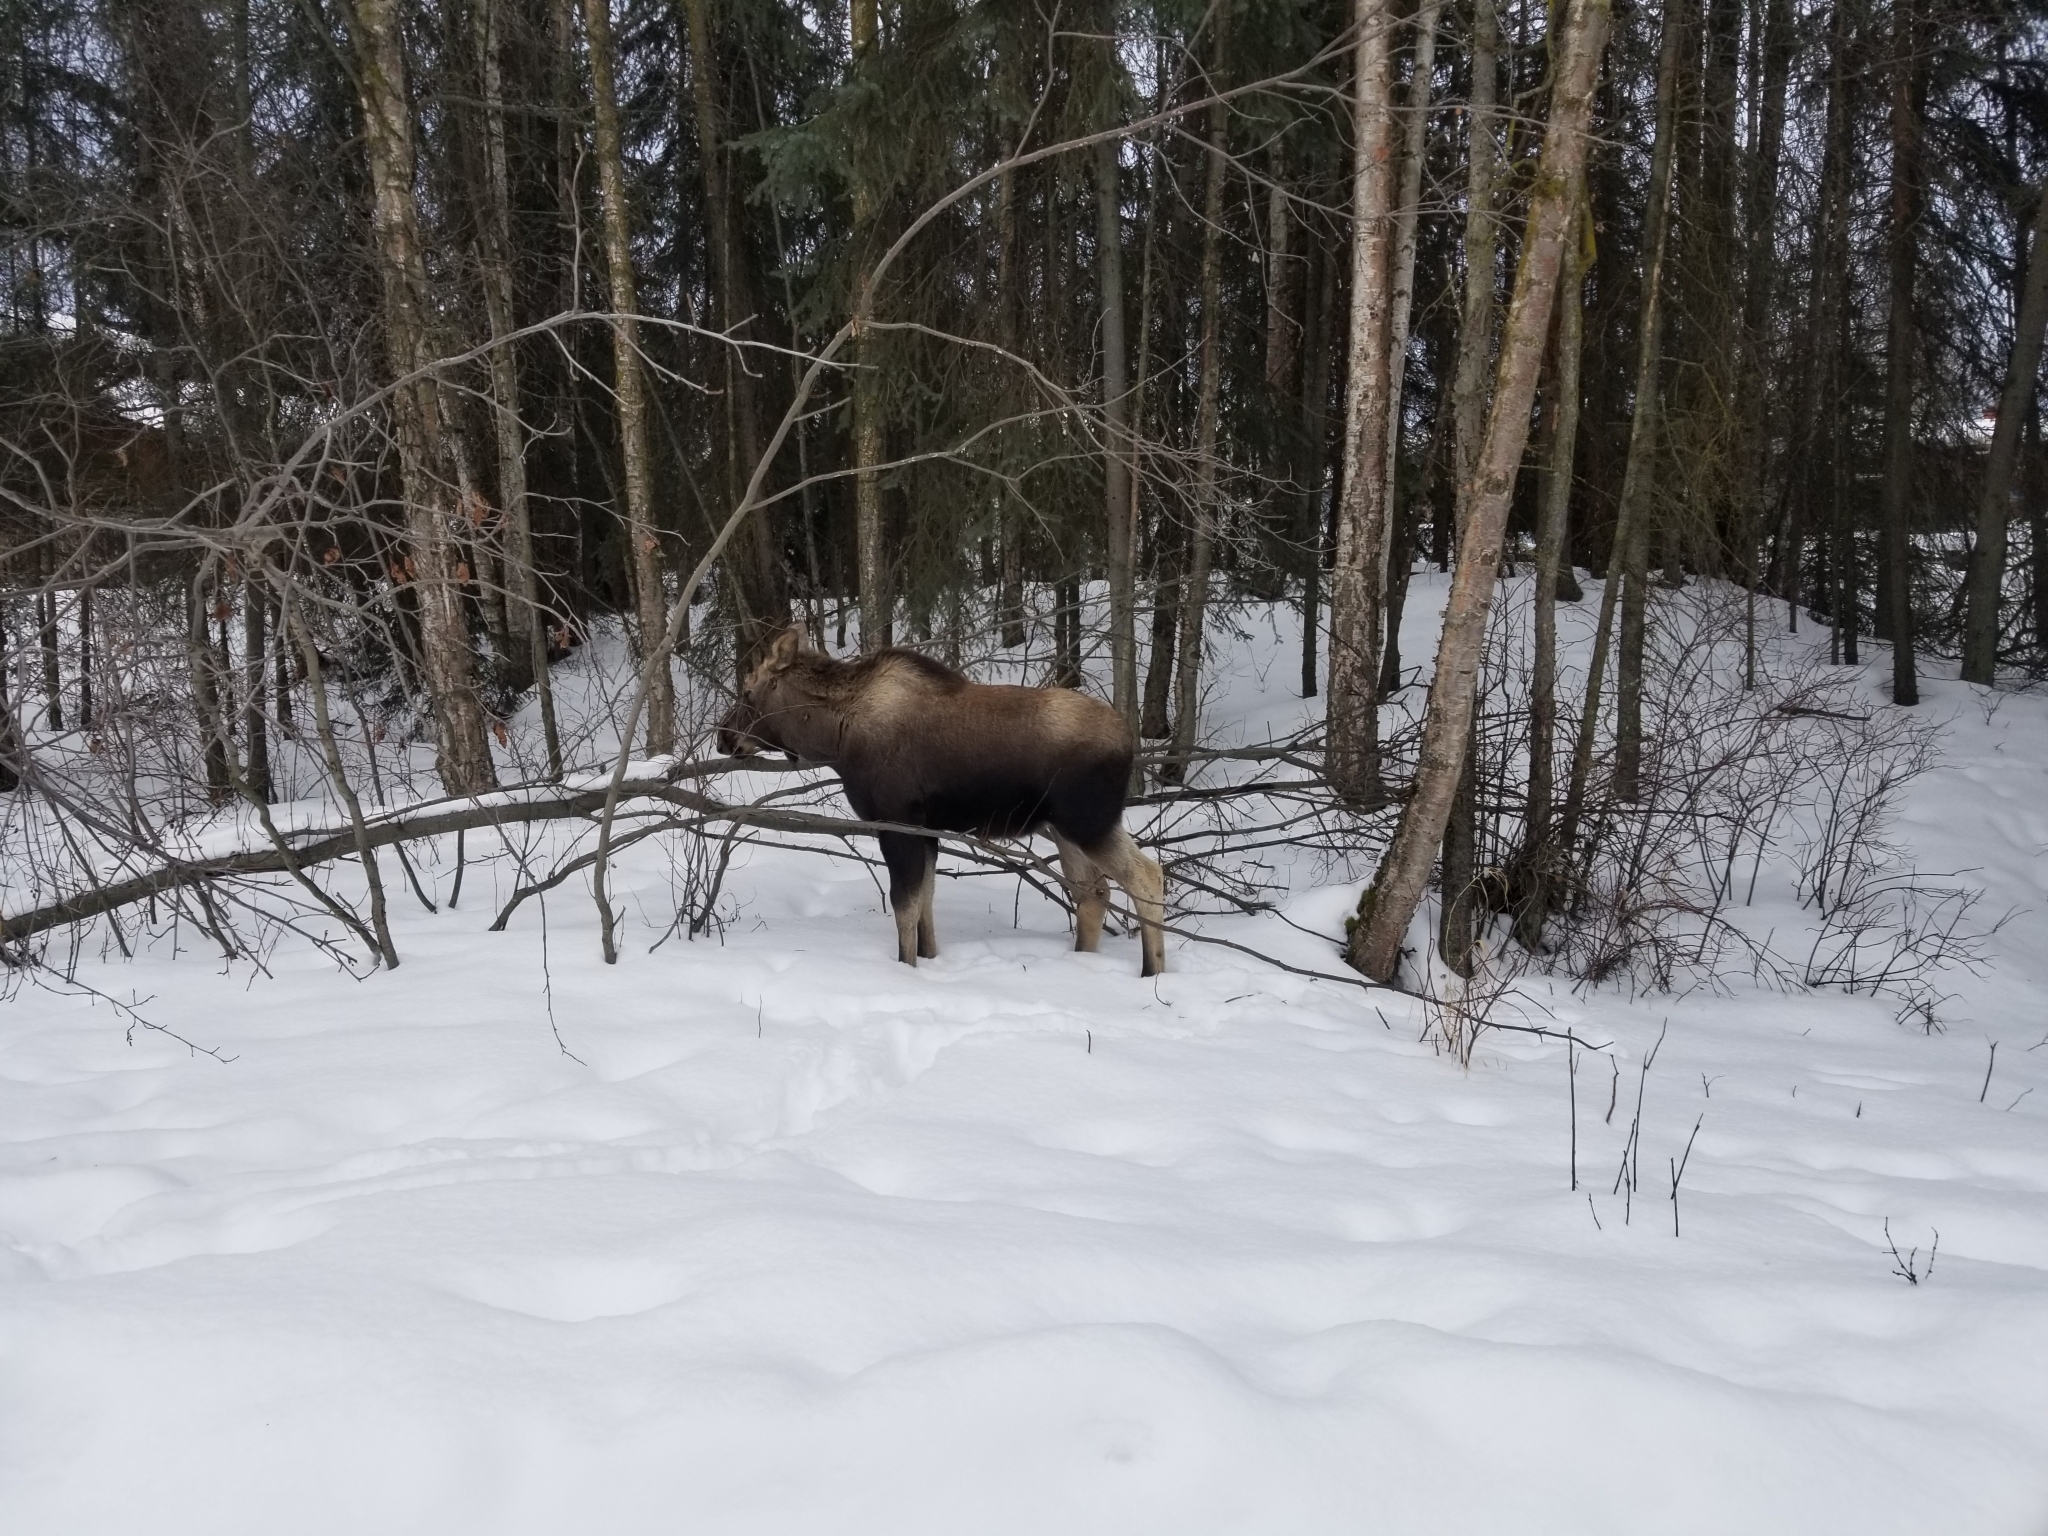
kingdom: Animalia
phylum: Chordata
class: Mammalia
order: Artiodactyla
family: Cervidae
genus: Alces
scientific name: Alces alces
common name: Moose
